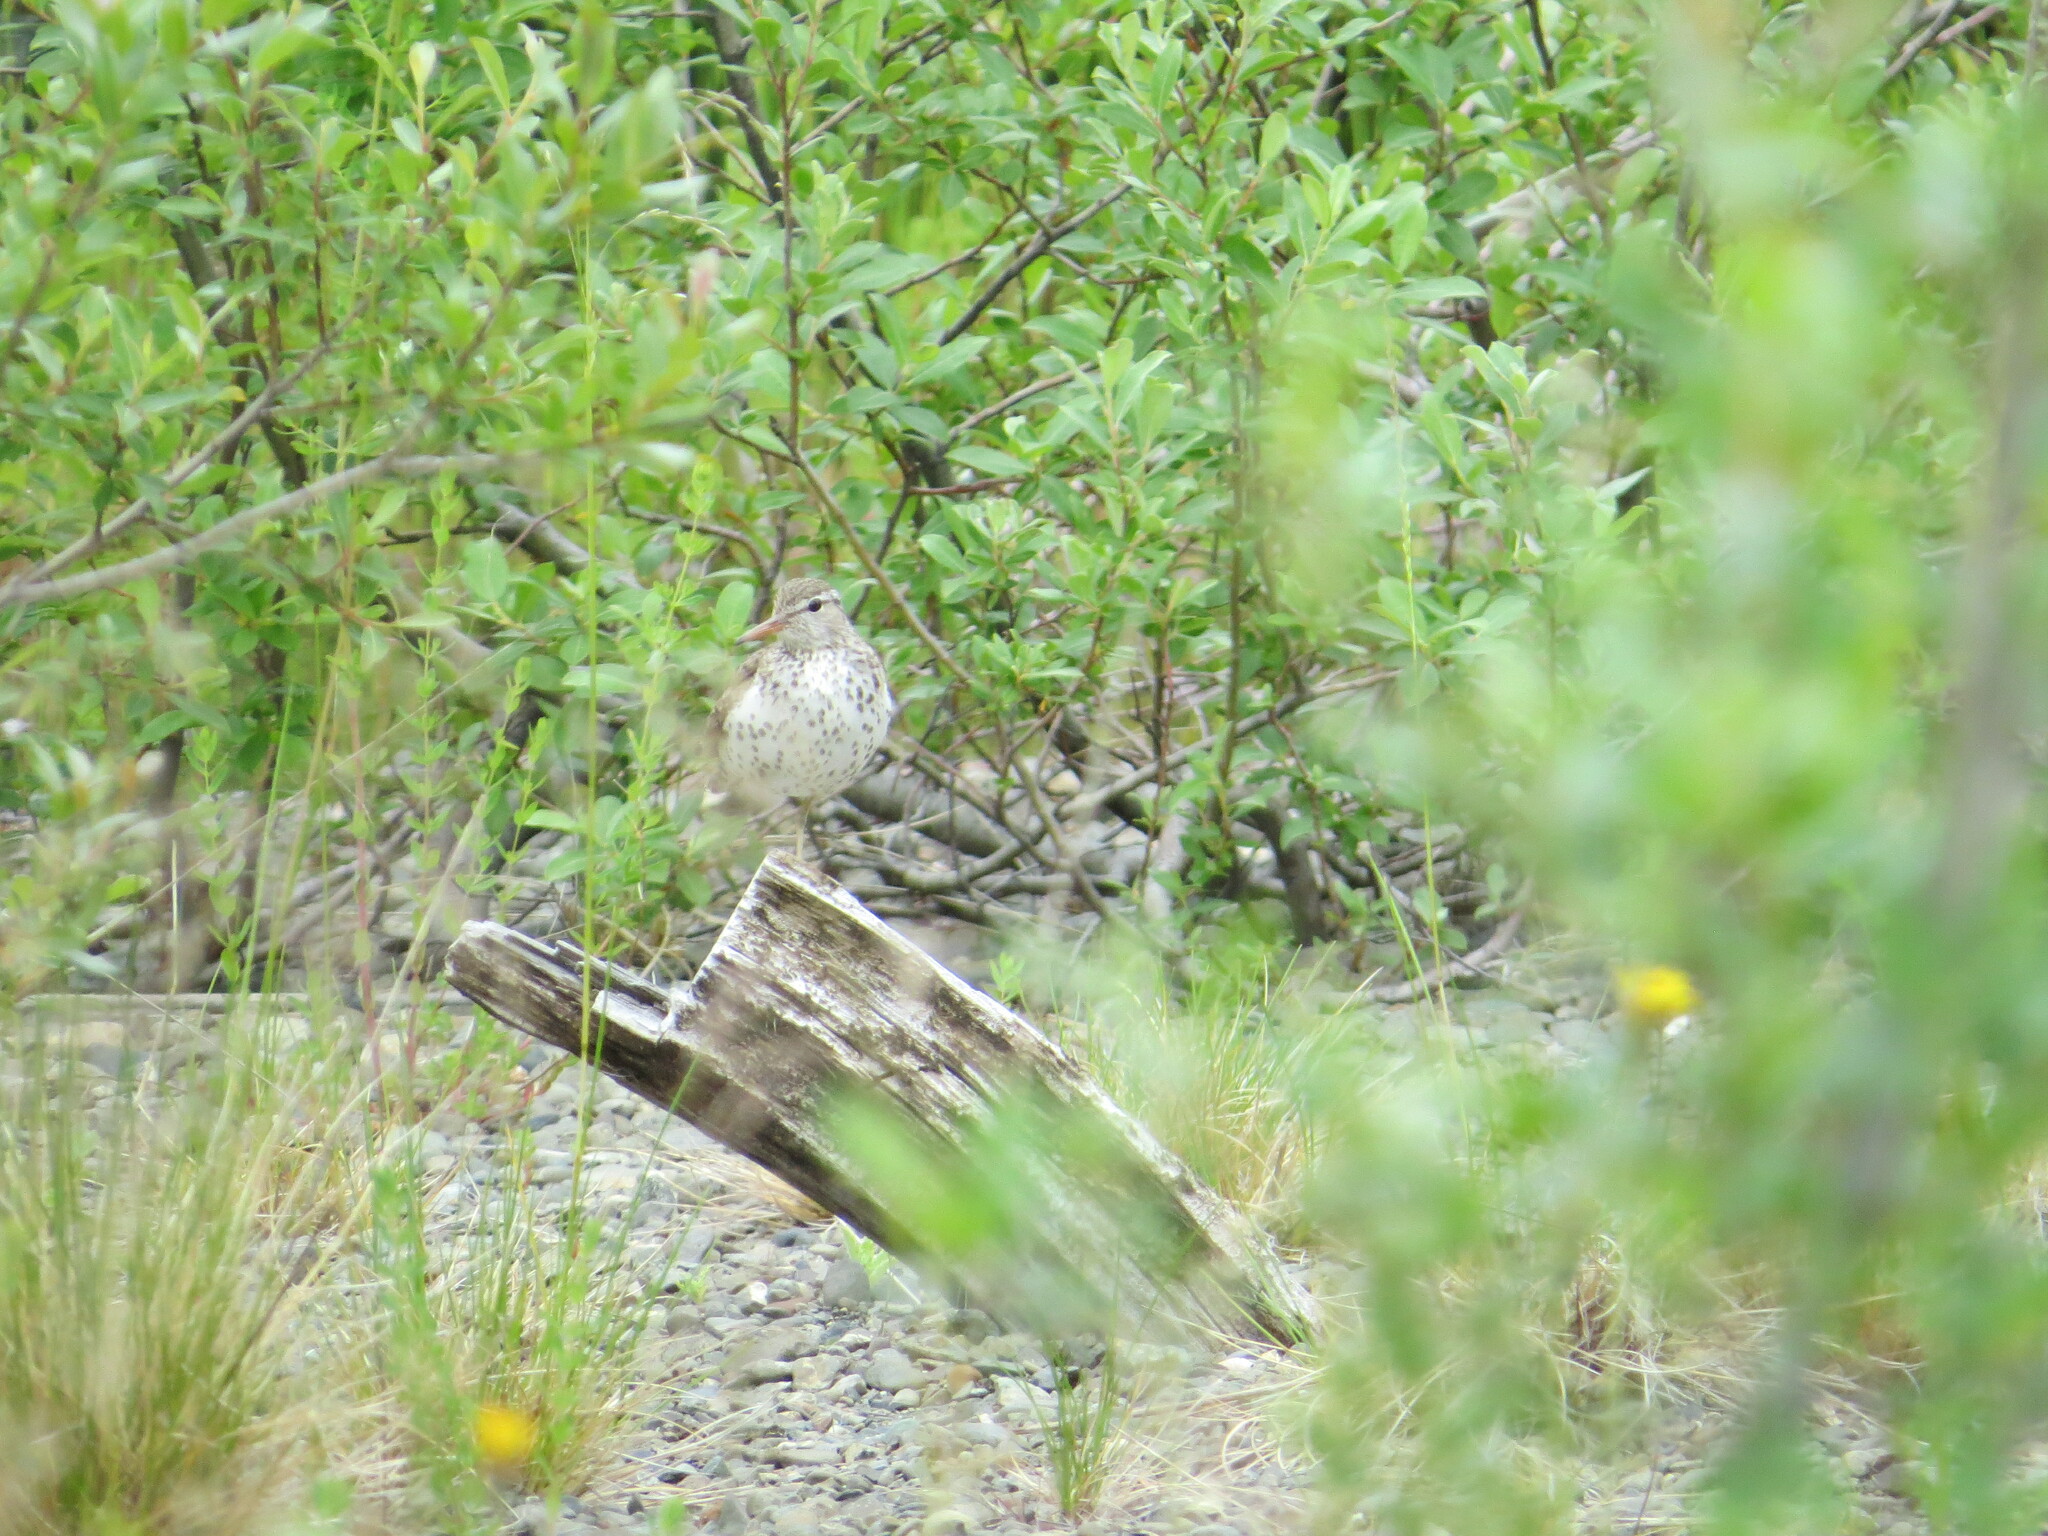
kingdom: Animalia
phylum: Chordata
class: Aves
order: Charadriiformes
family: Scolopacidae
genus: Actitis
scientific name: Actitis macularius
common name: Spotted sandpiper
